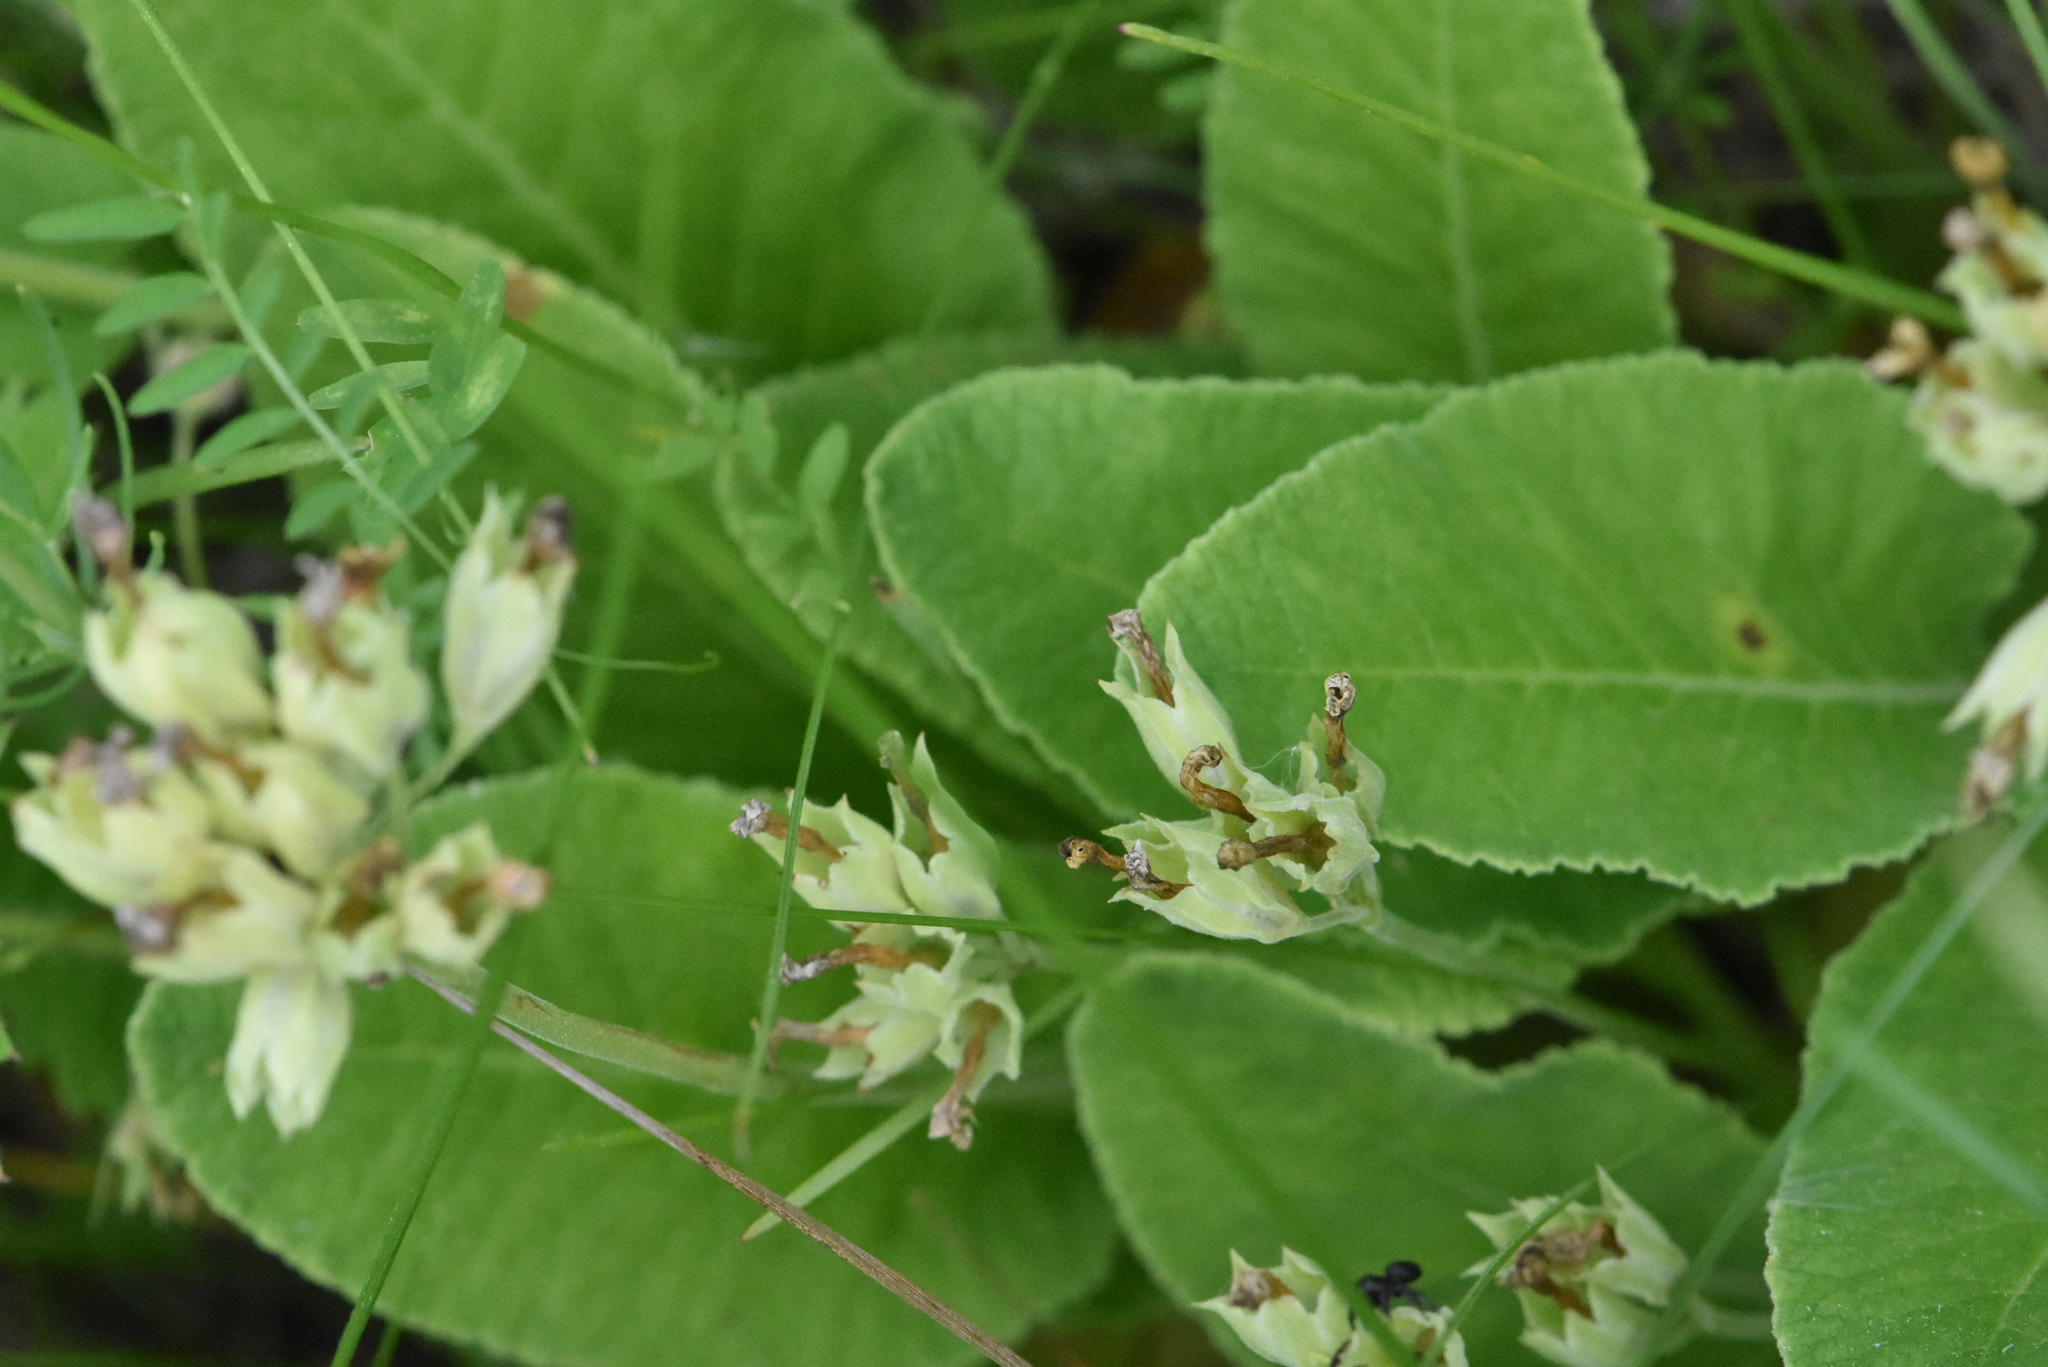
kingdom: Plantae
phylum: Tracheophyta
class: Magnoliopsida
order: Ericales
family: Primulaceae
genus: Primula
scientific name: Primula veris
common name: Cowslip
